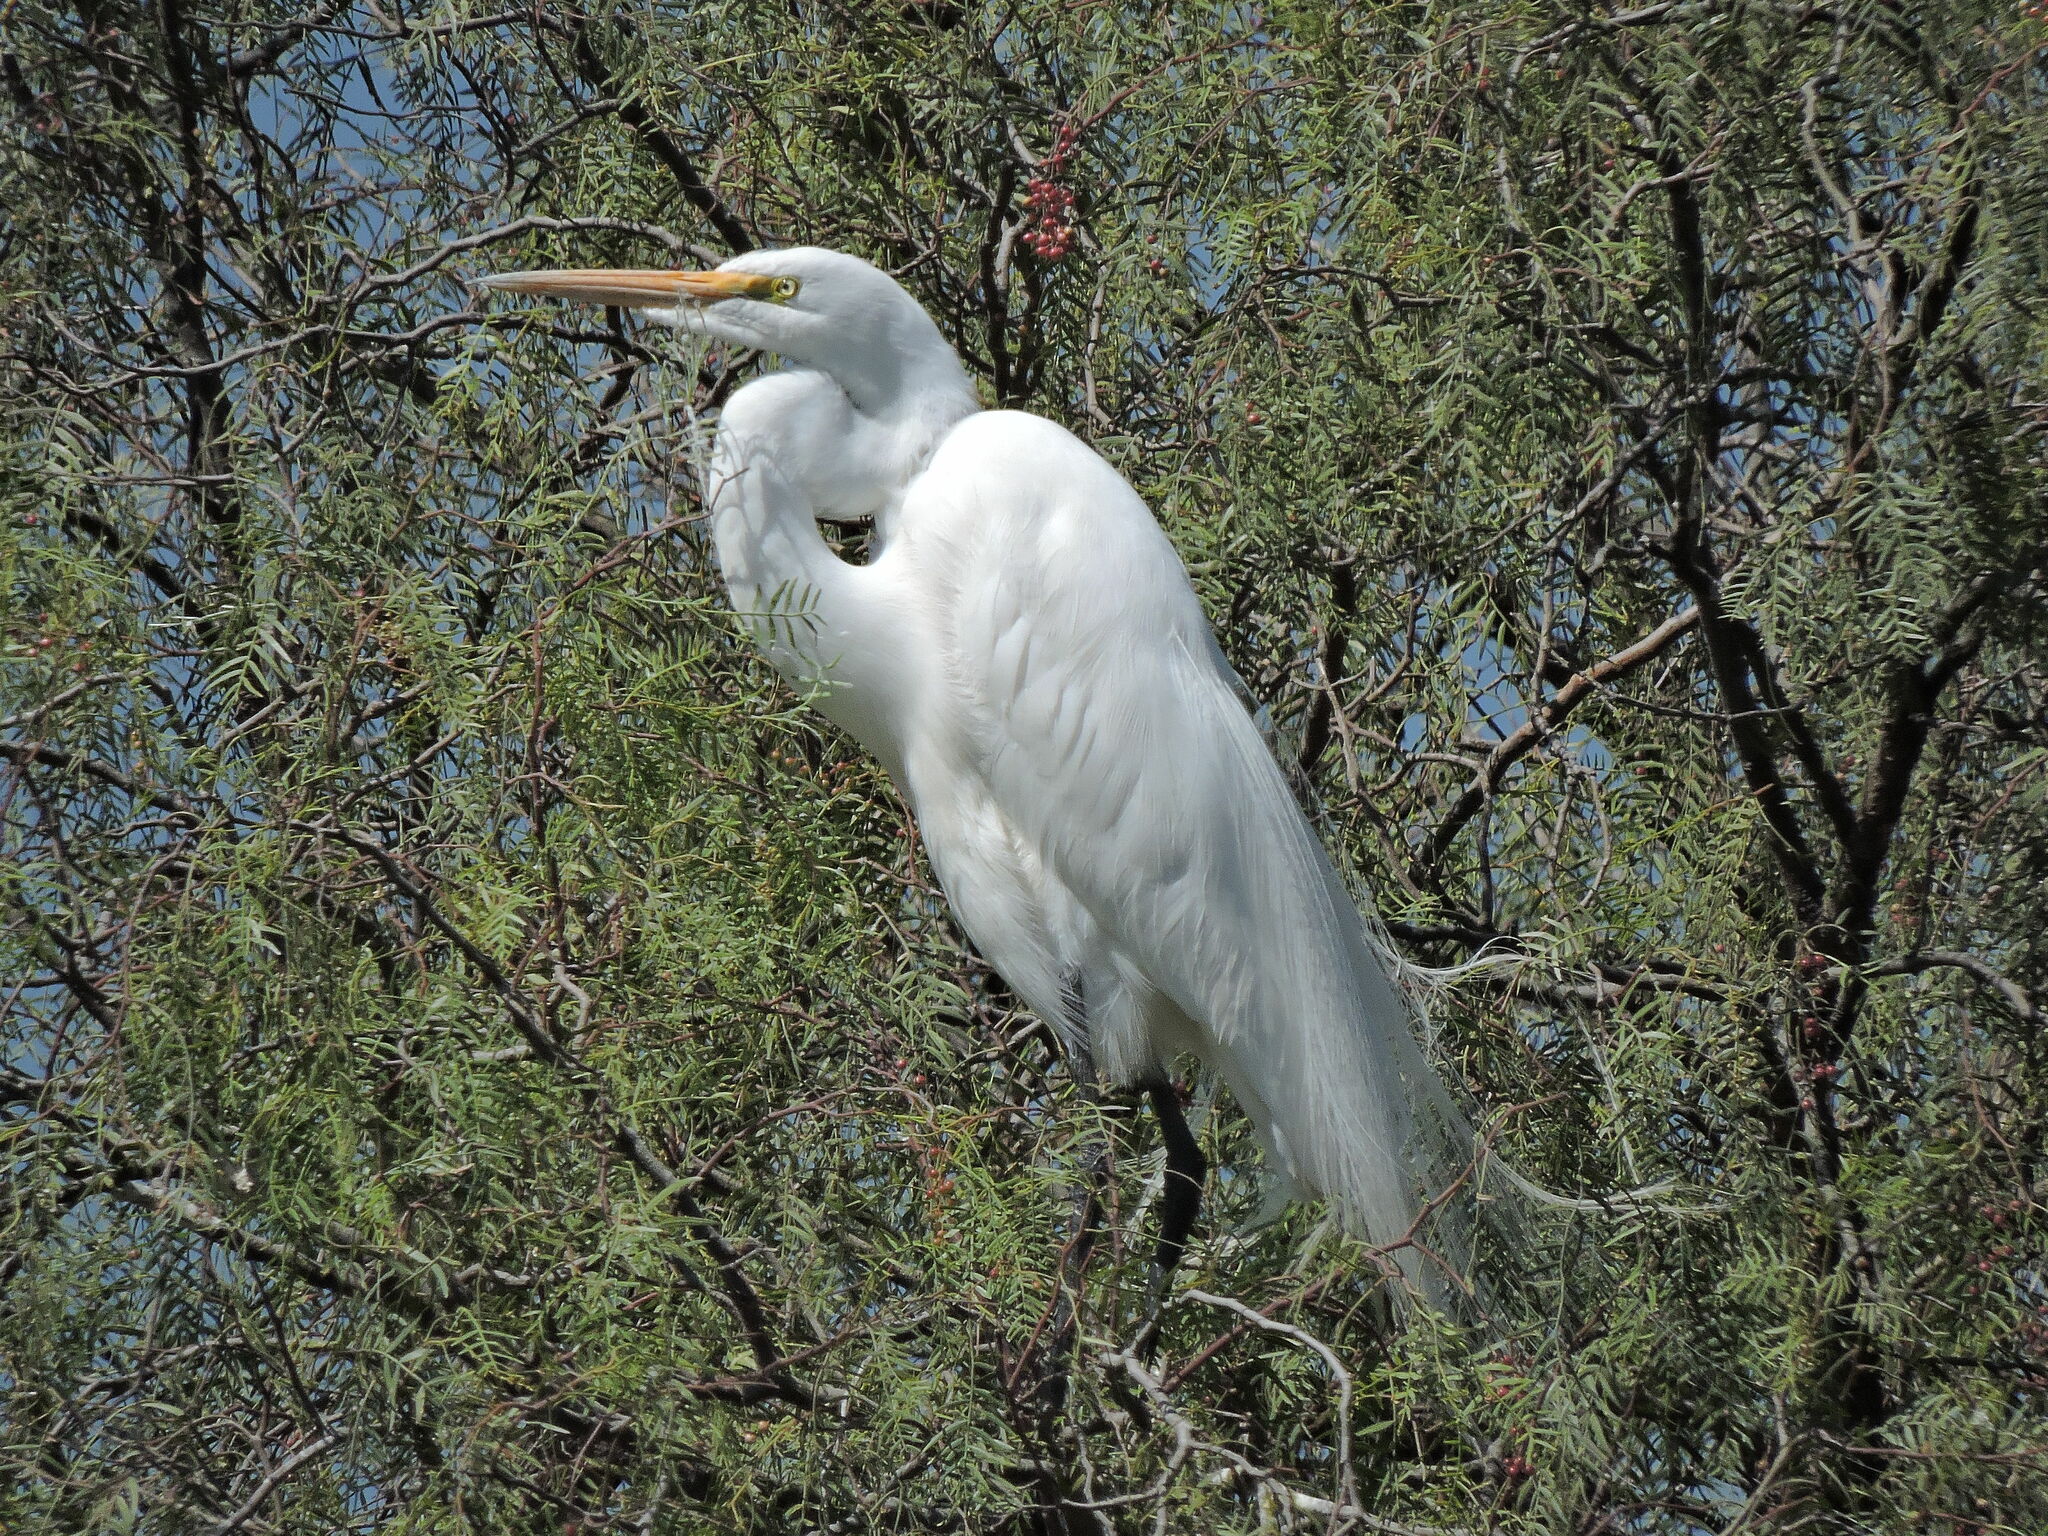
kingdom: Animalia
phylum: Chordata
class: Aves
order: Pelecaniformes
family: Ardeidae
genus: Ardea
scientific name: Ardea alba
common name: Great egret
